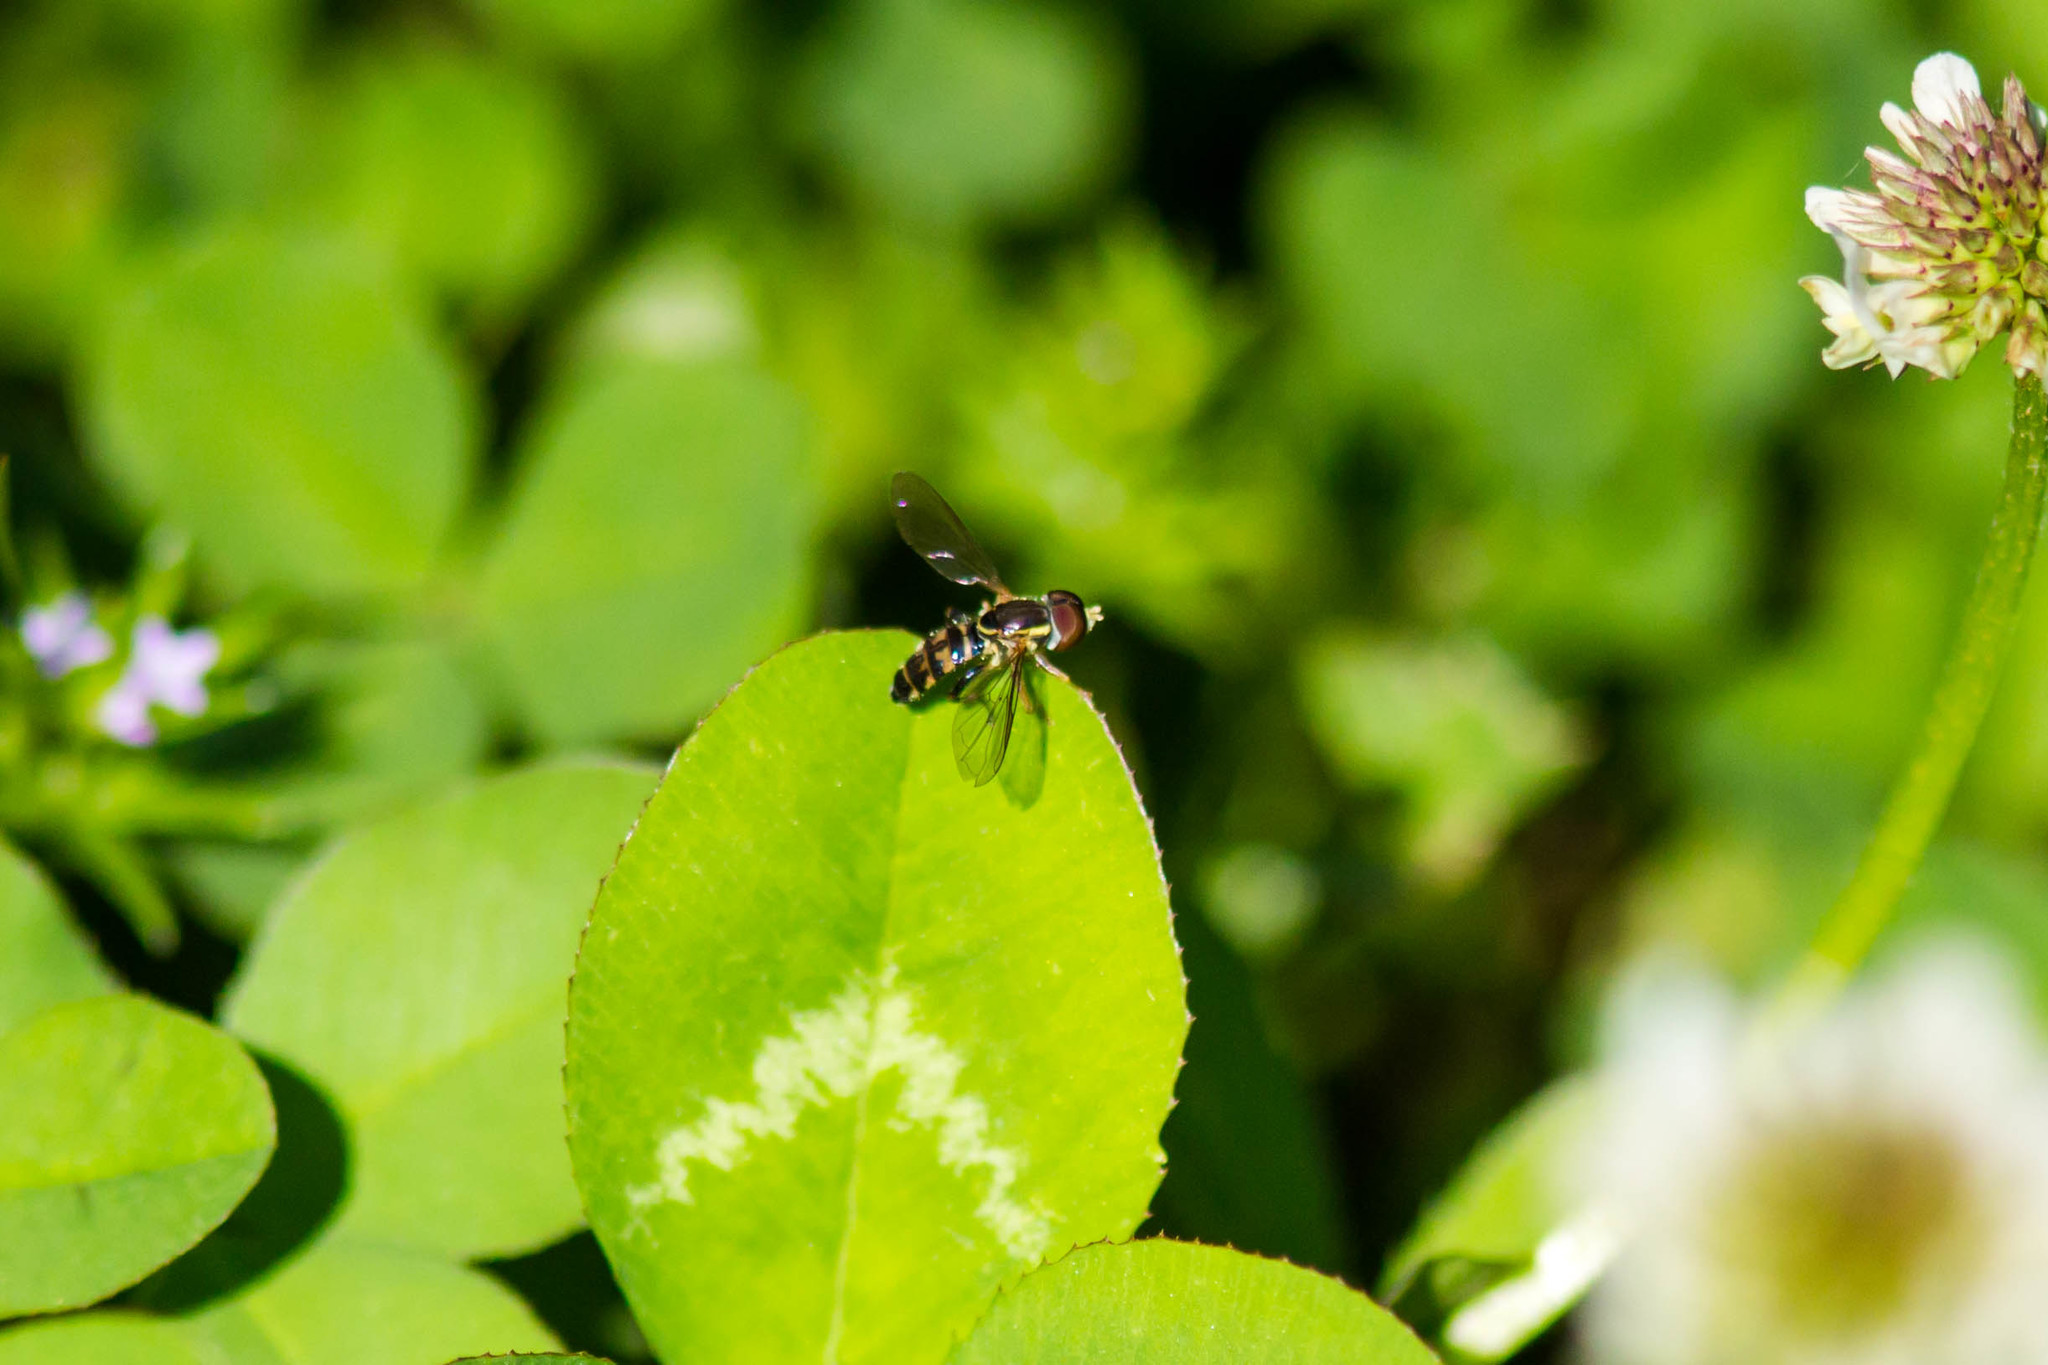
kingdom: Animalia
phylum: Arthropoda
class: Insecta
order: Diptera
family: Syrphidae
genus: Toxomerus
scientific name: Toxomerus geminatus
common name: Eastern calligrapher
